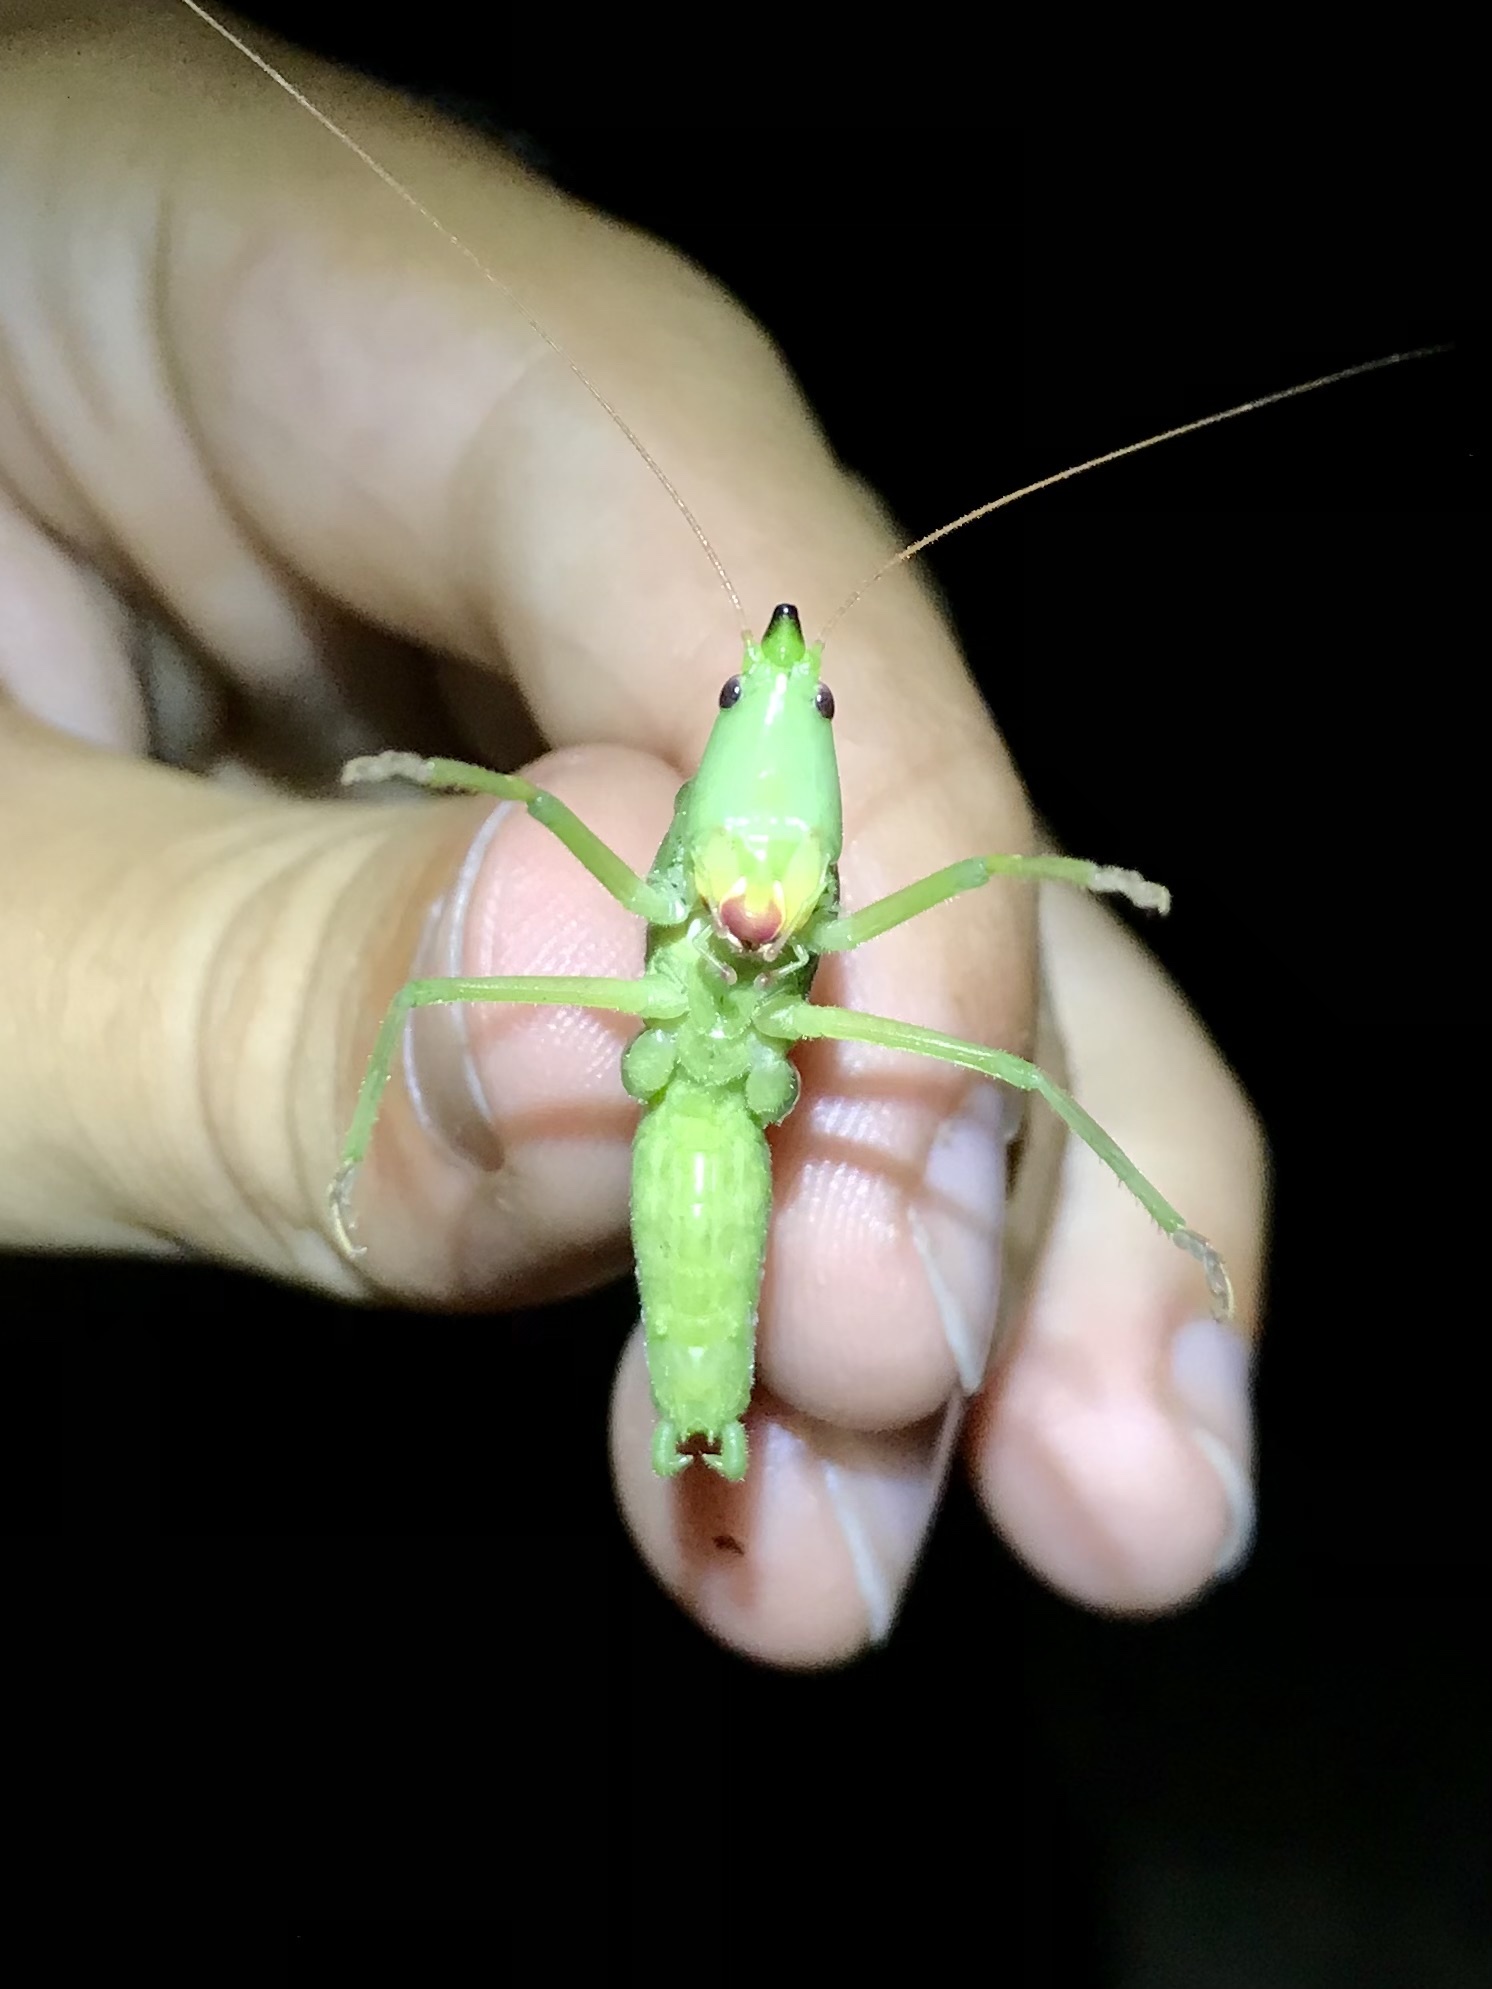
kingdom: Animalia
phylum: Arthropoda
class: Insecta
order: Orthoptera
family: Tettigoniidae
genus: Neoconocephalus
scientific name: Neoconocephalus nebrascensis
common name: Nebraska conehead
